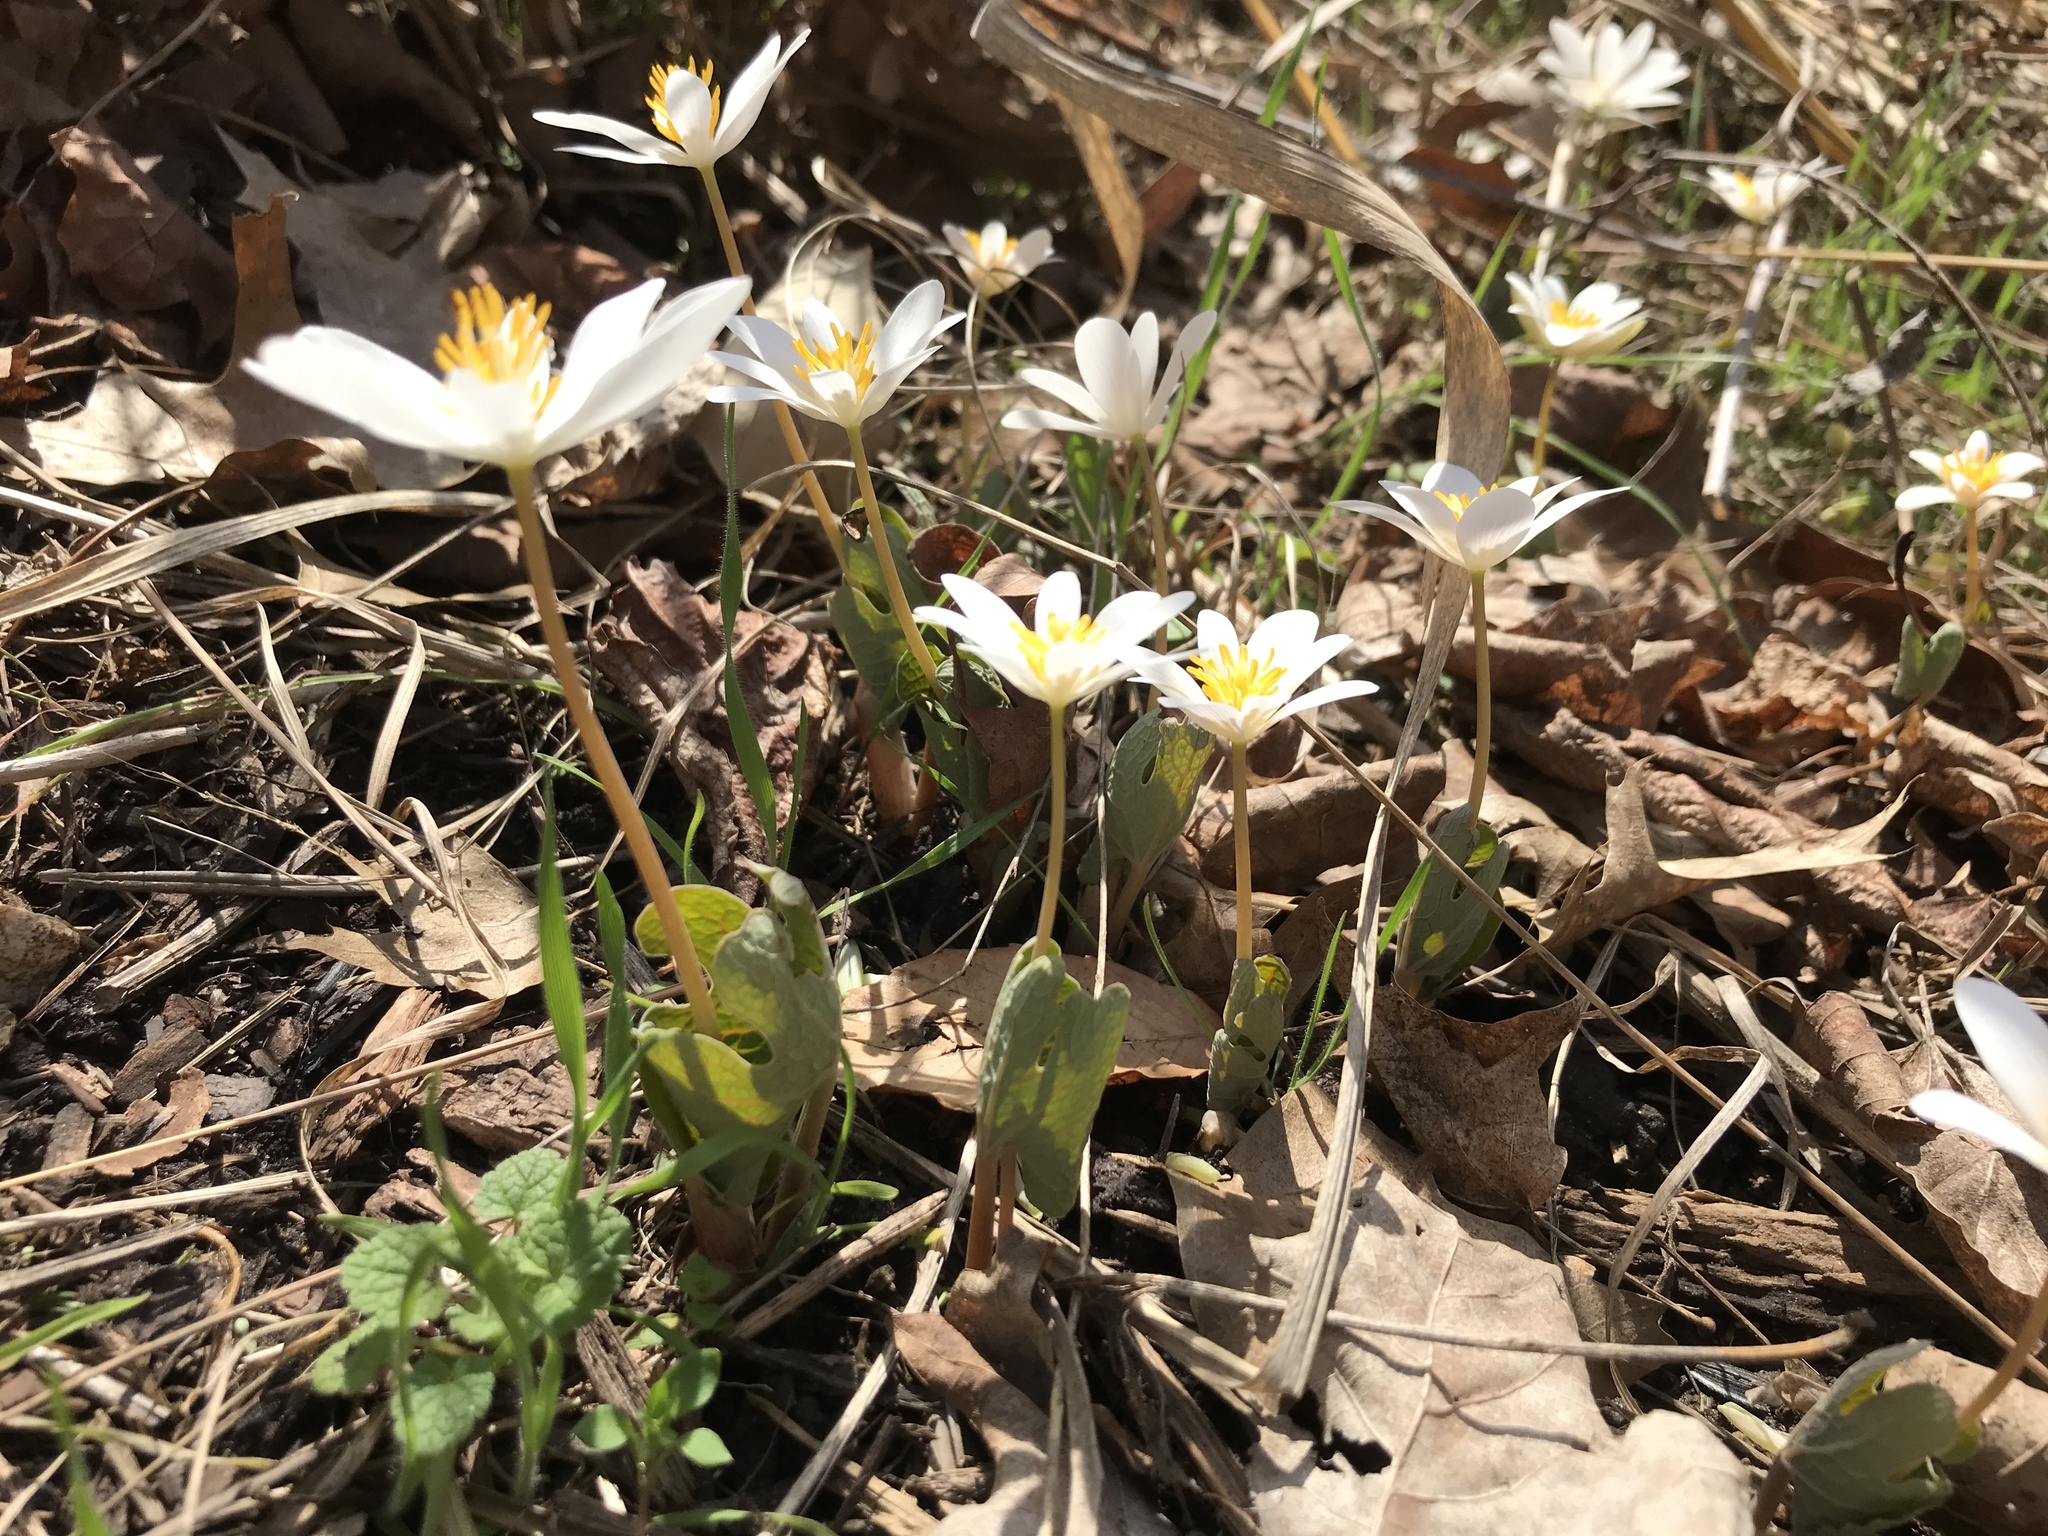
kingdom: Plantae
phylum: Tracheophyta
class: Magnoliopsida
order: Ranunculales
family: Papaveraceae
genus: Sanguinaria
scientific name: Sanguinaria canadensis
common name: Bloodroot
